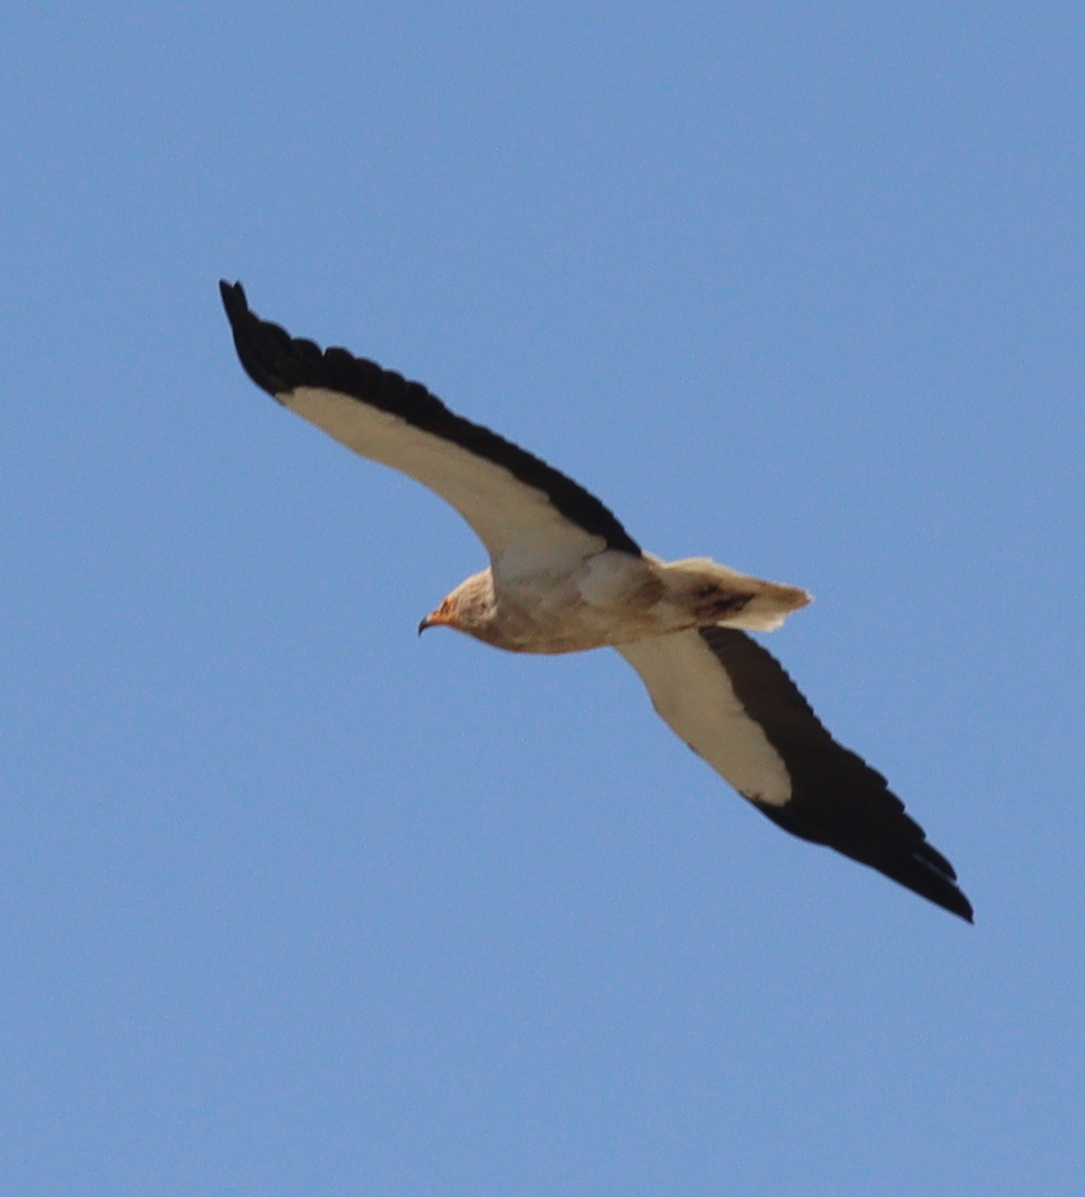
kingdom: Animalia
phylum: Chordata
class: Aves
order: Accipitriformes
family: Accipitridae
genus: Neophron
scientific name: Neophron percnopterus
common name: Egyptian vulture
